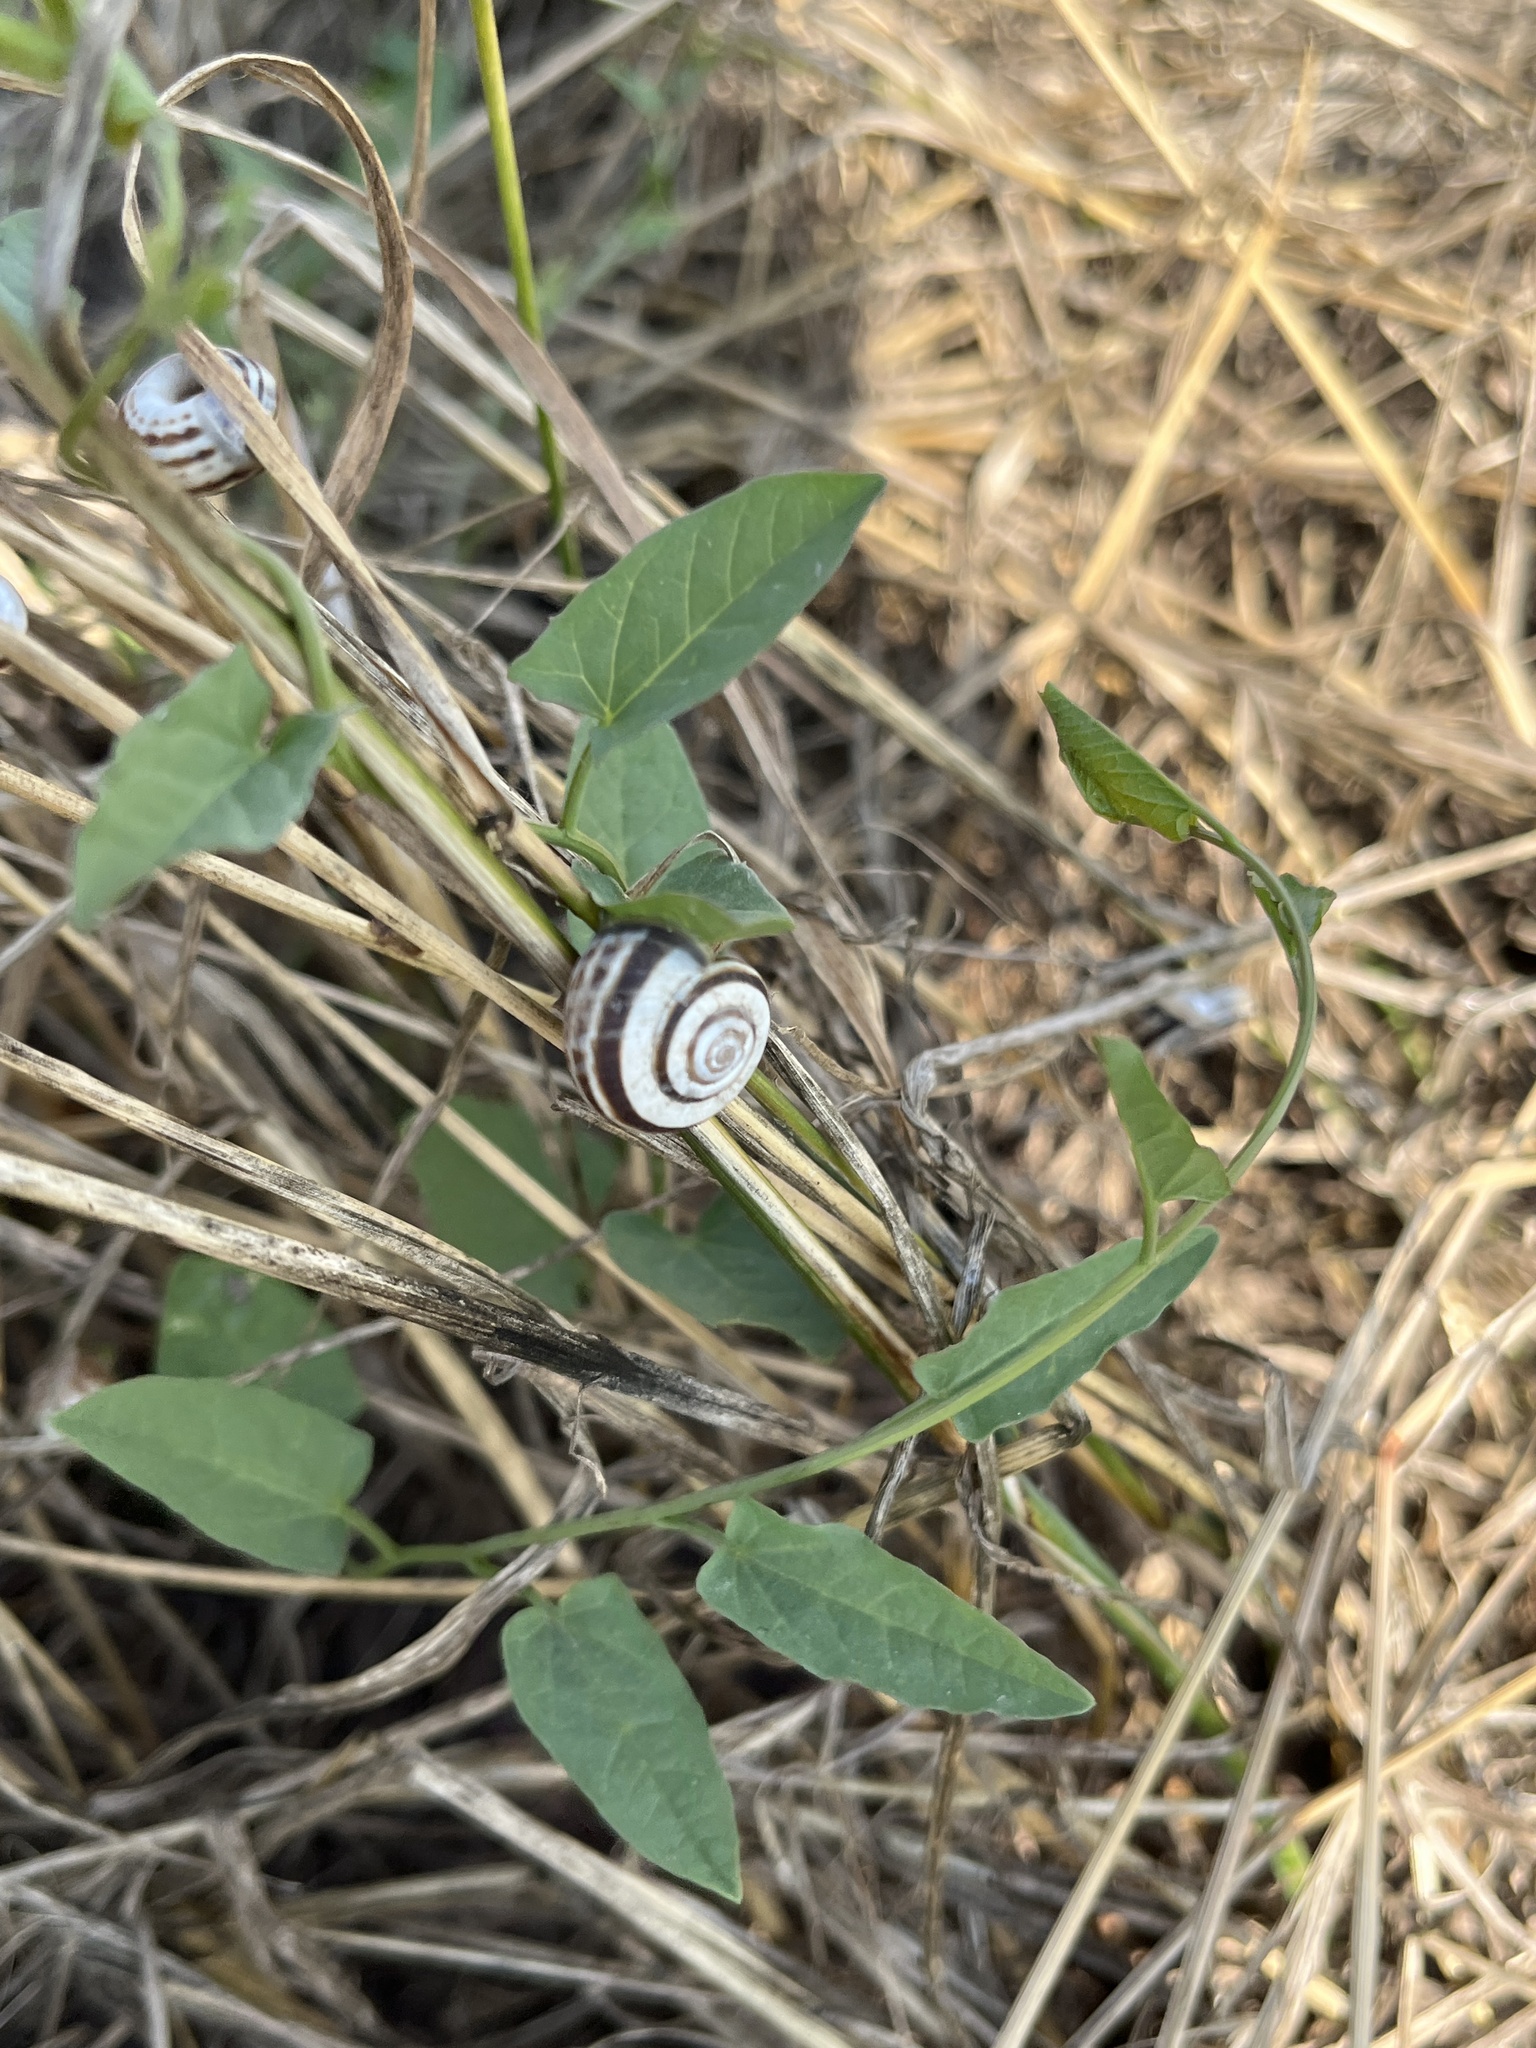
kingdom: Animalia
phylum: Mollusca
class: Gastropoda
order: Stylommatophora
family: Geomitridae
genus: Xerolenta
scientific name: Xerolenta obvia
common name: White heath snail
